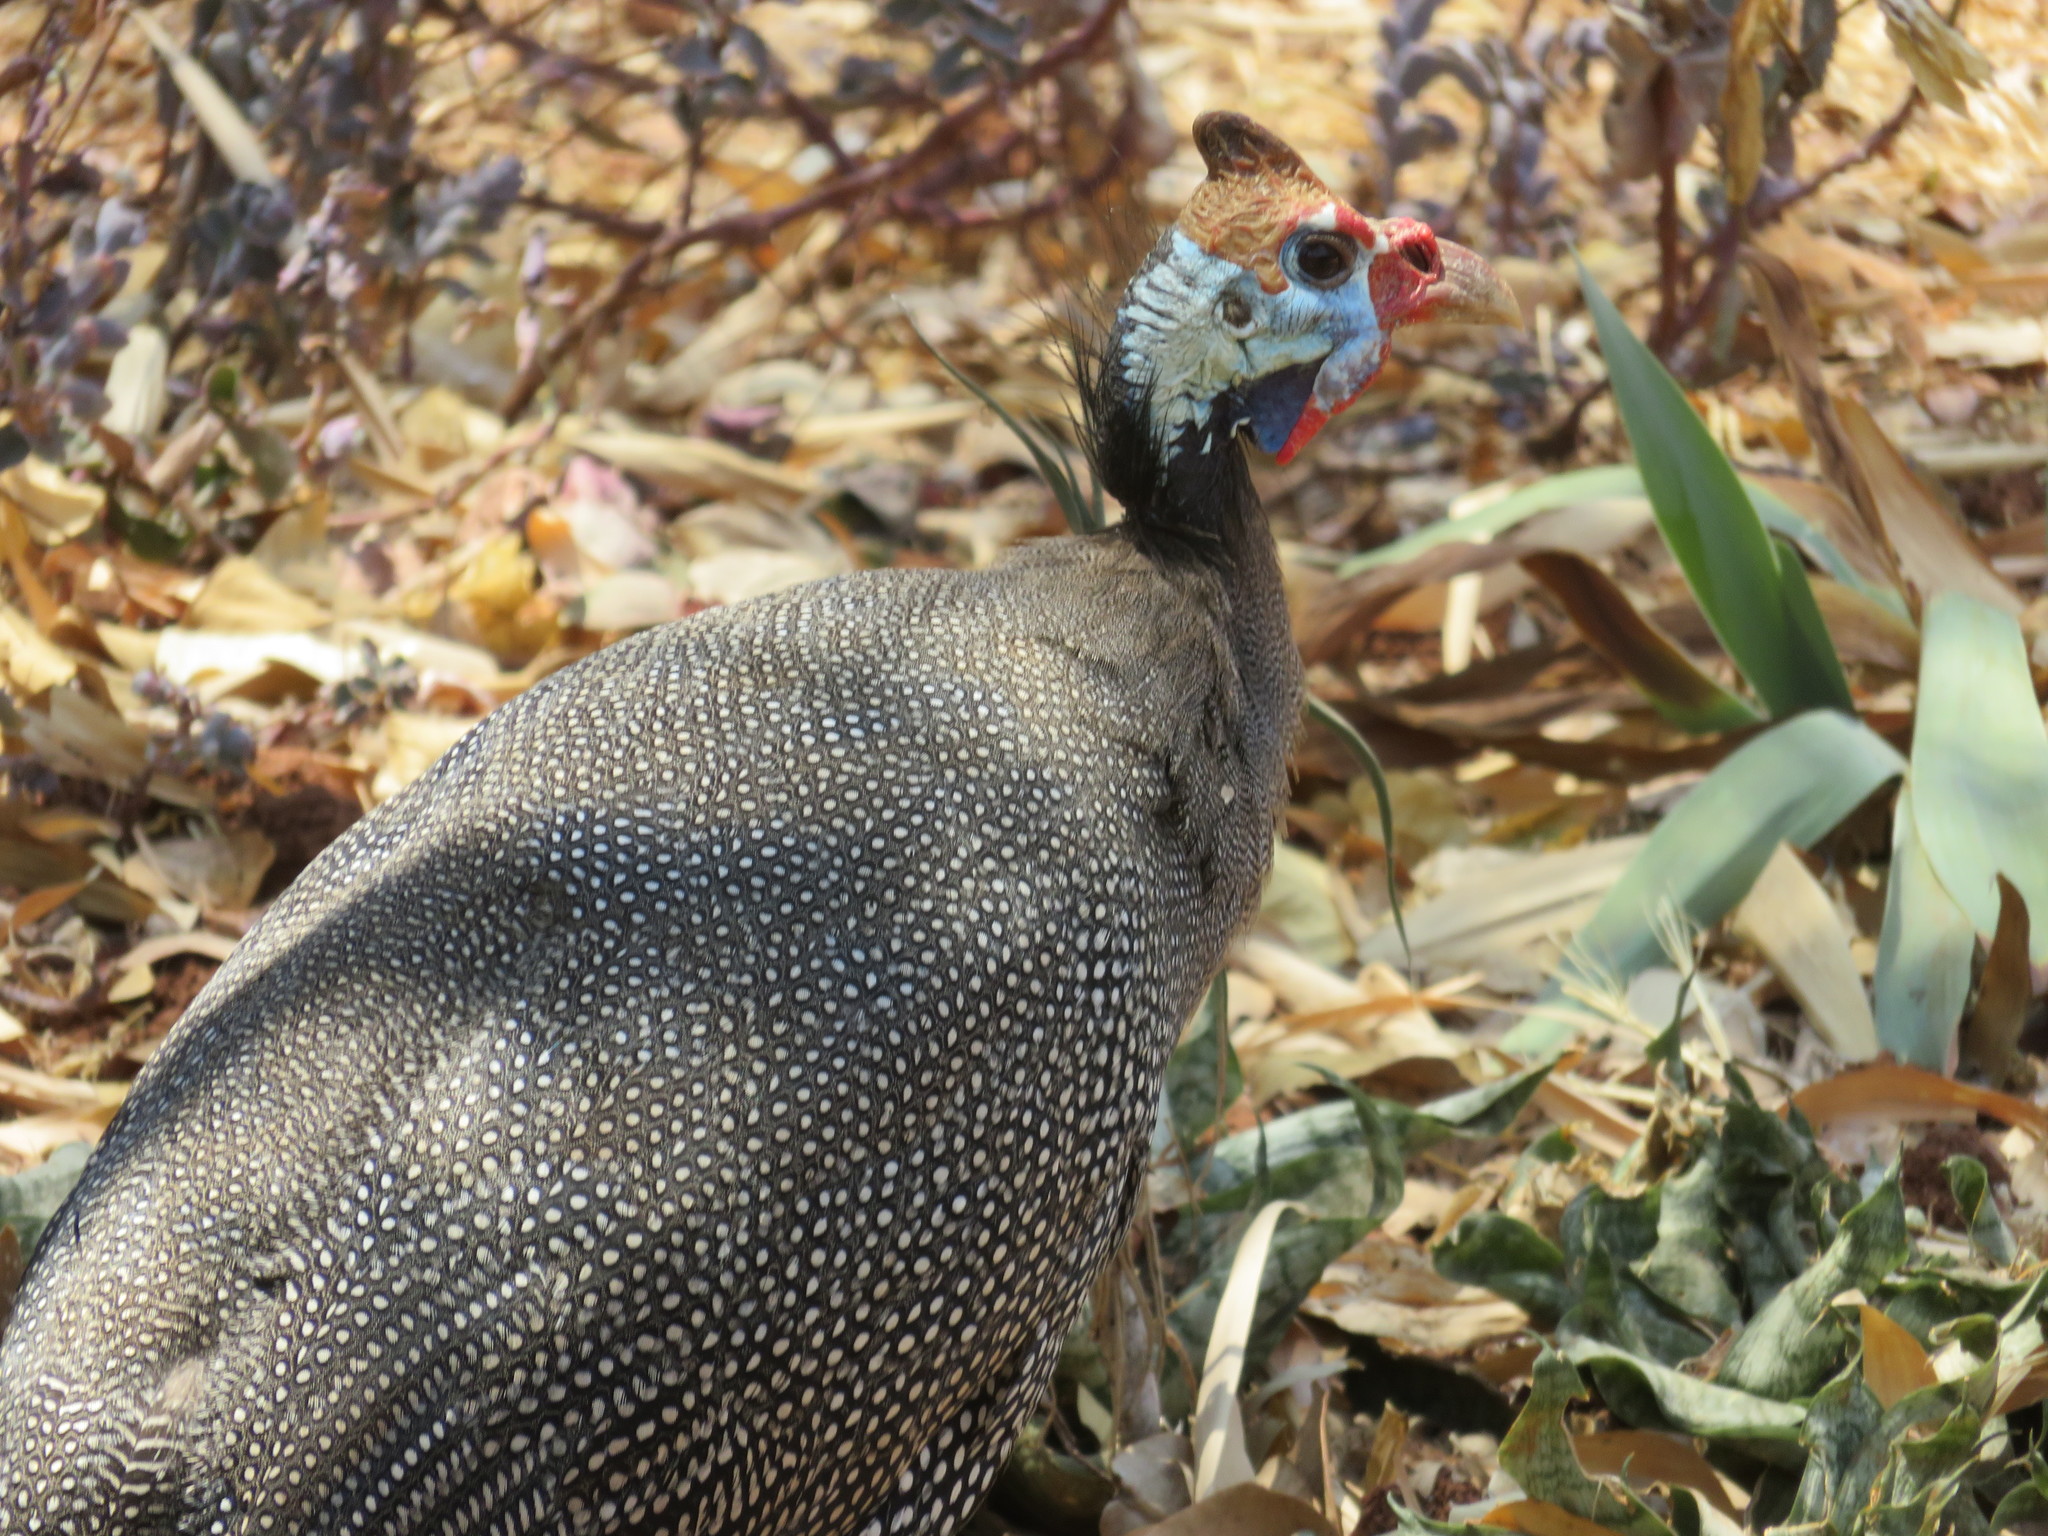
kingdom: Animalia
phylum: Chordata
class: Aves
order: Galliformes
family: Numididae
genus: Numida
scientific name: Numida meleagris
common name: Helmeted guineafowl
